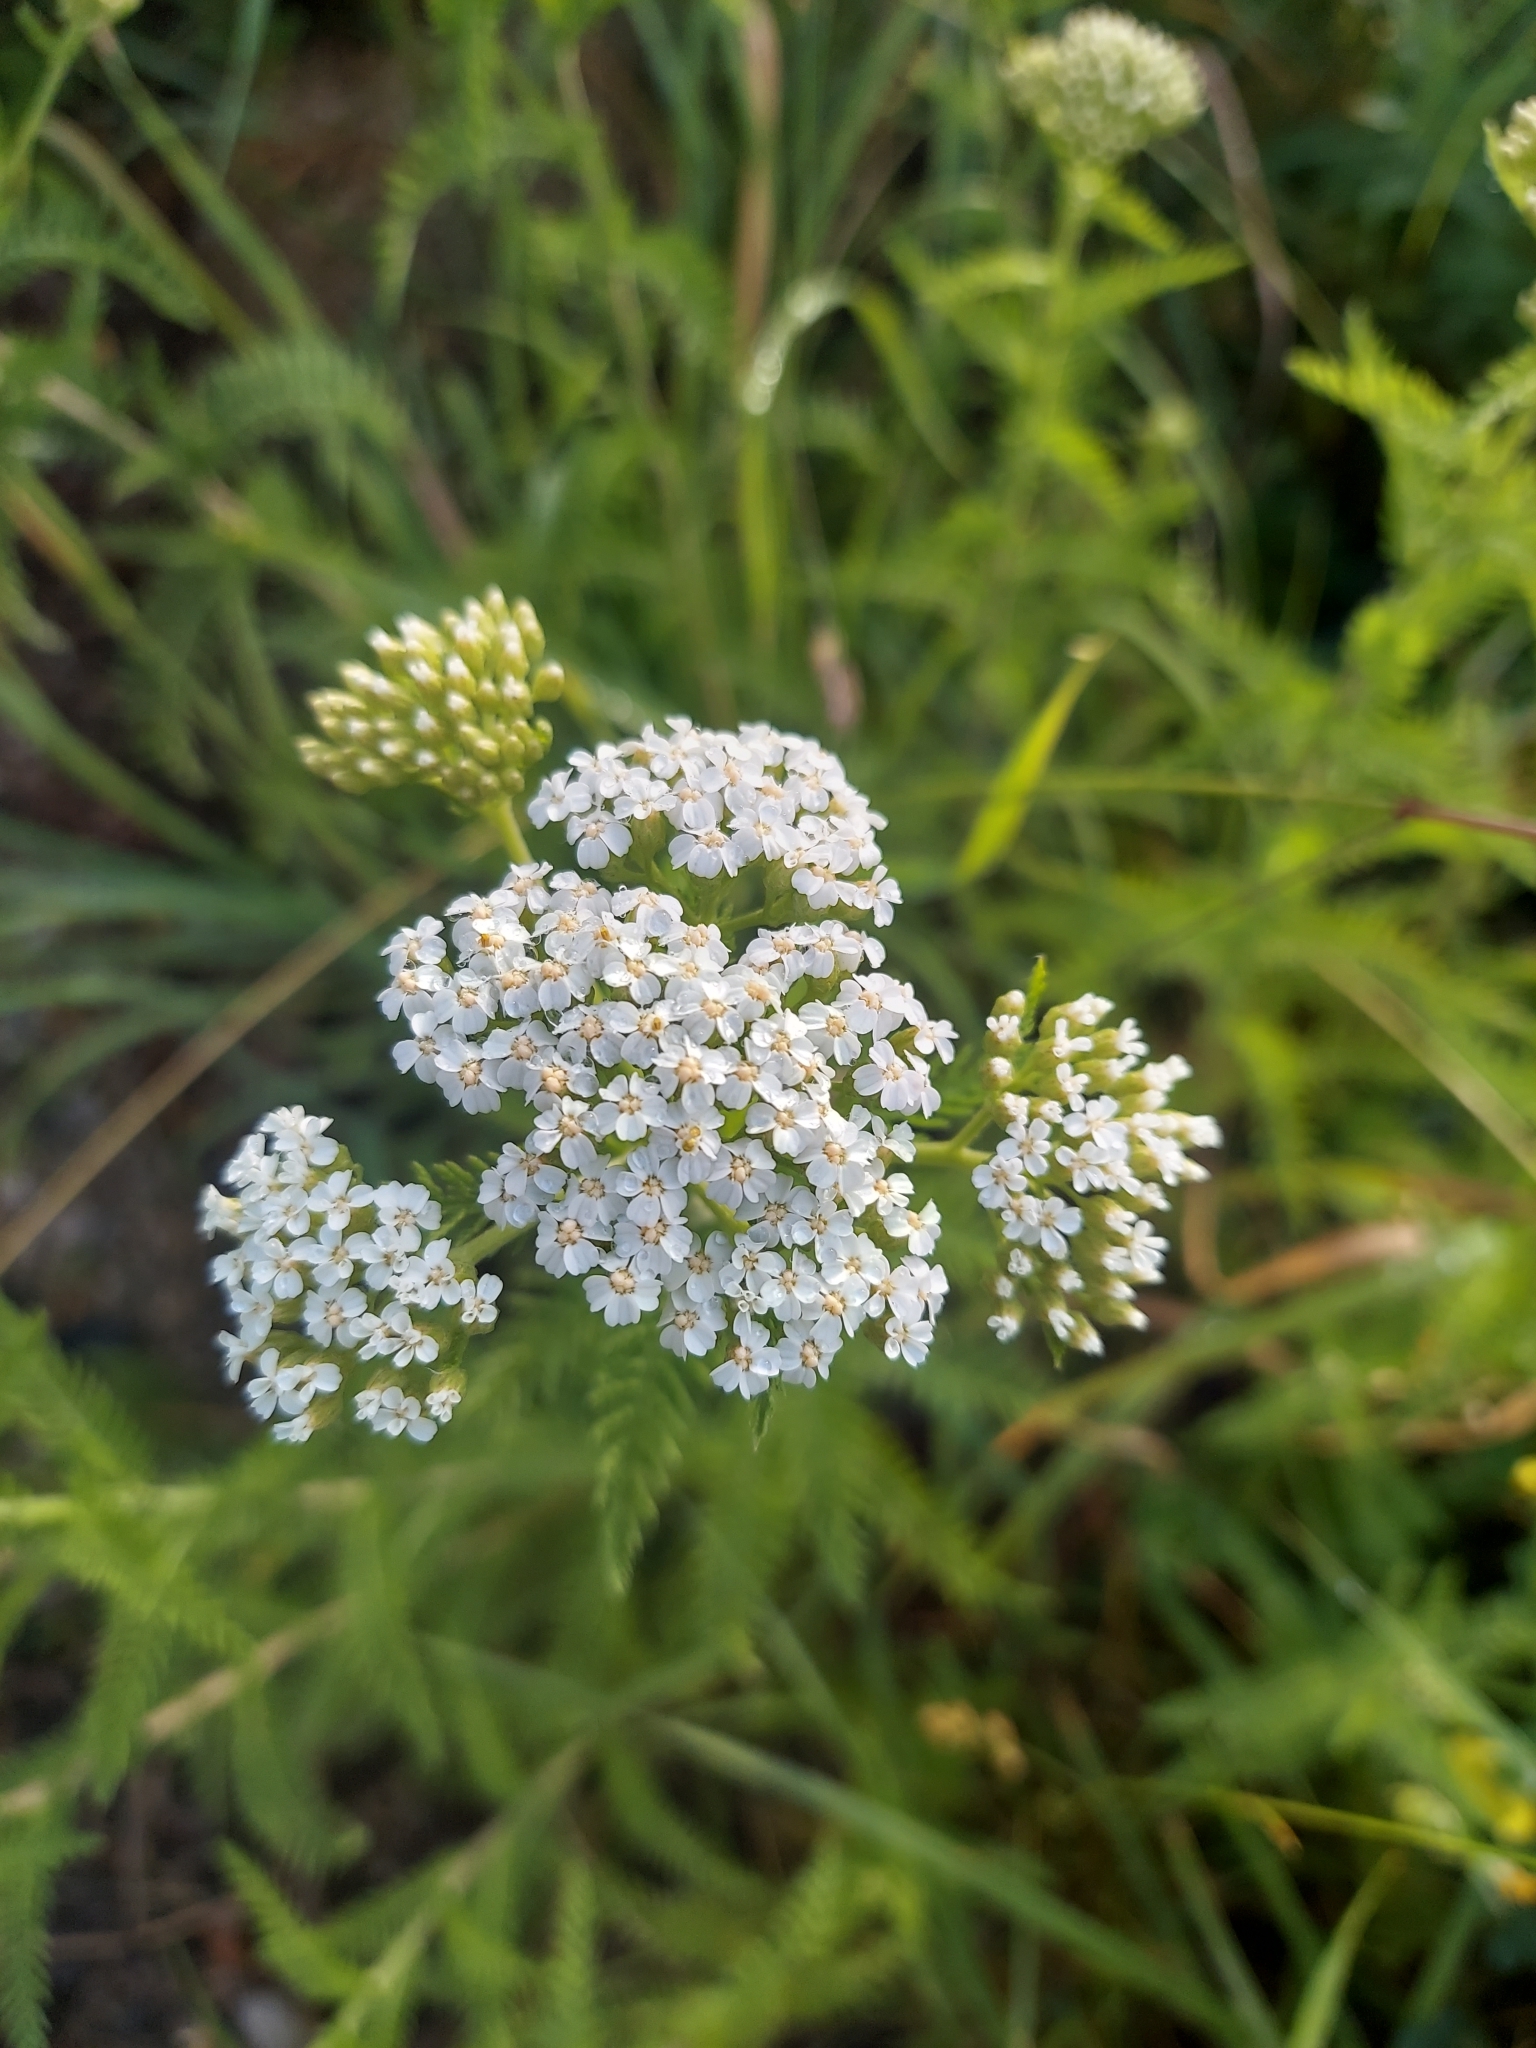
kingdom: Plantae
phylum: Tracheophyta
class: Magnoliopsida
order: Asterales
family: Asteraceae
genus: Achillea
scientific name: Achillea millefolium
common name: Yarrow
